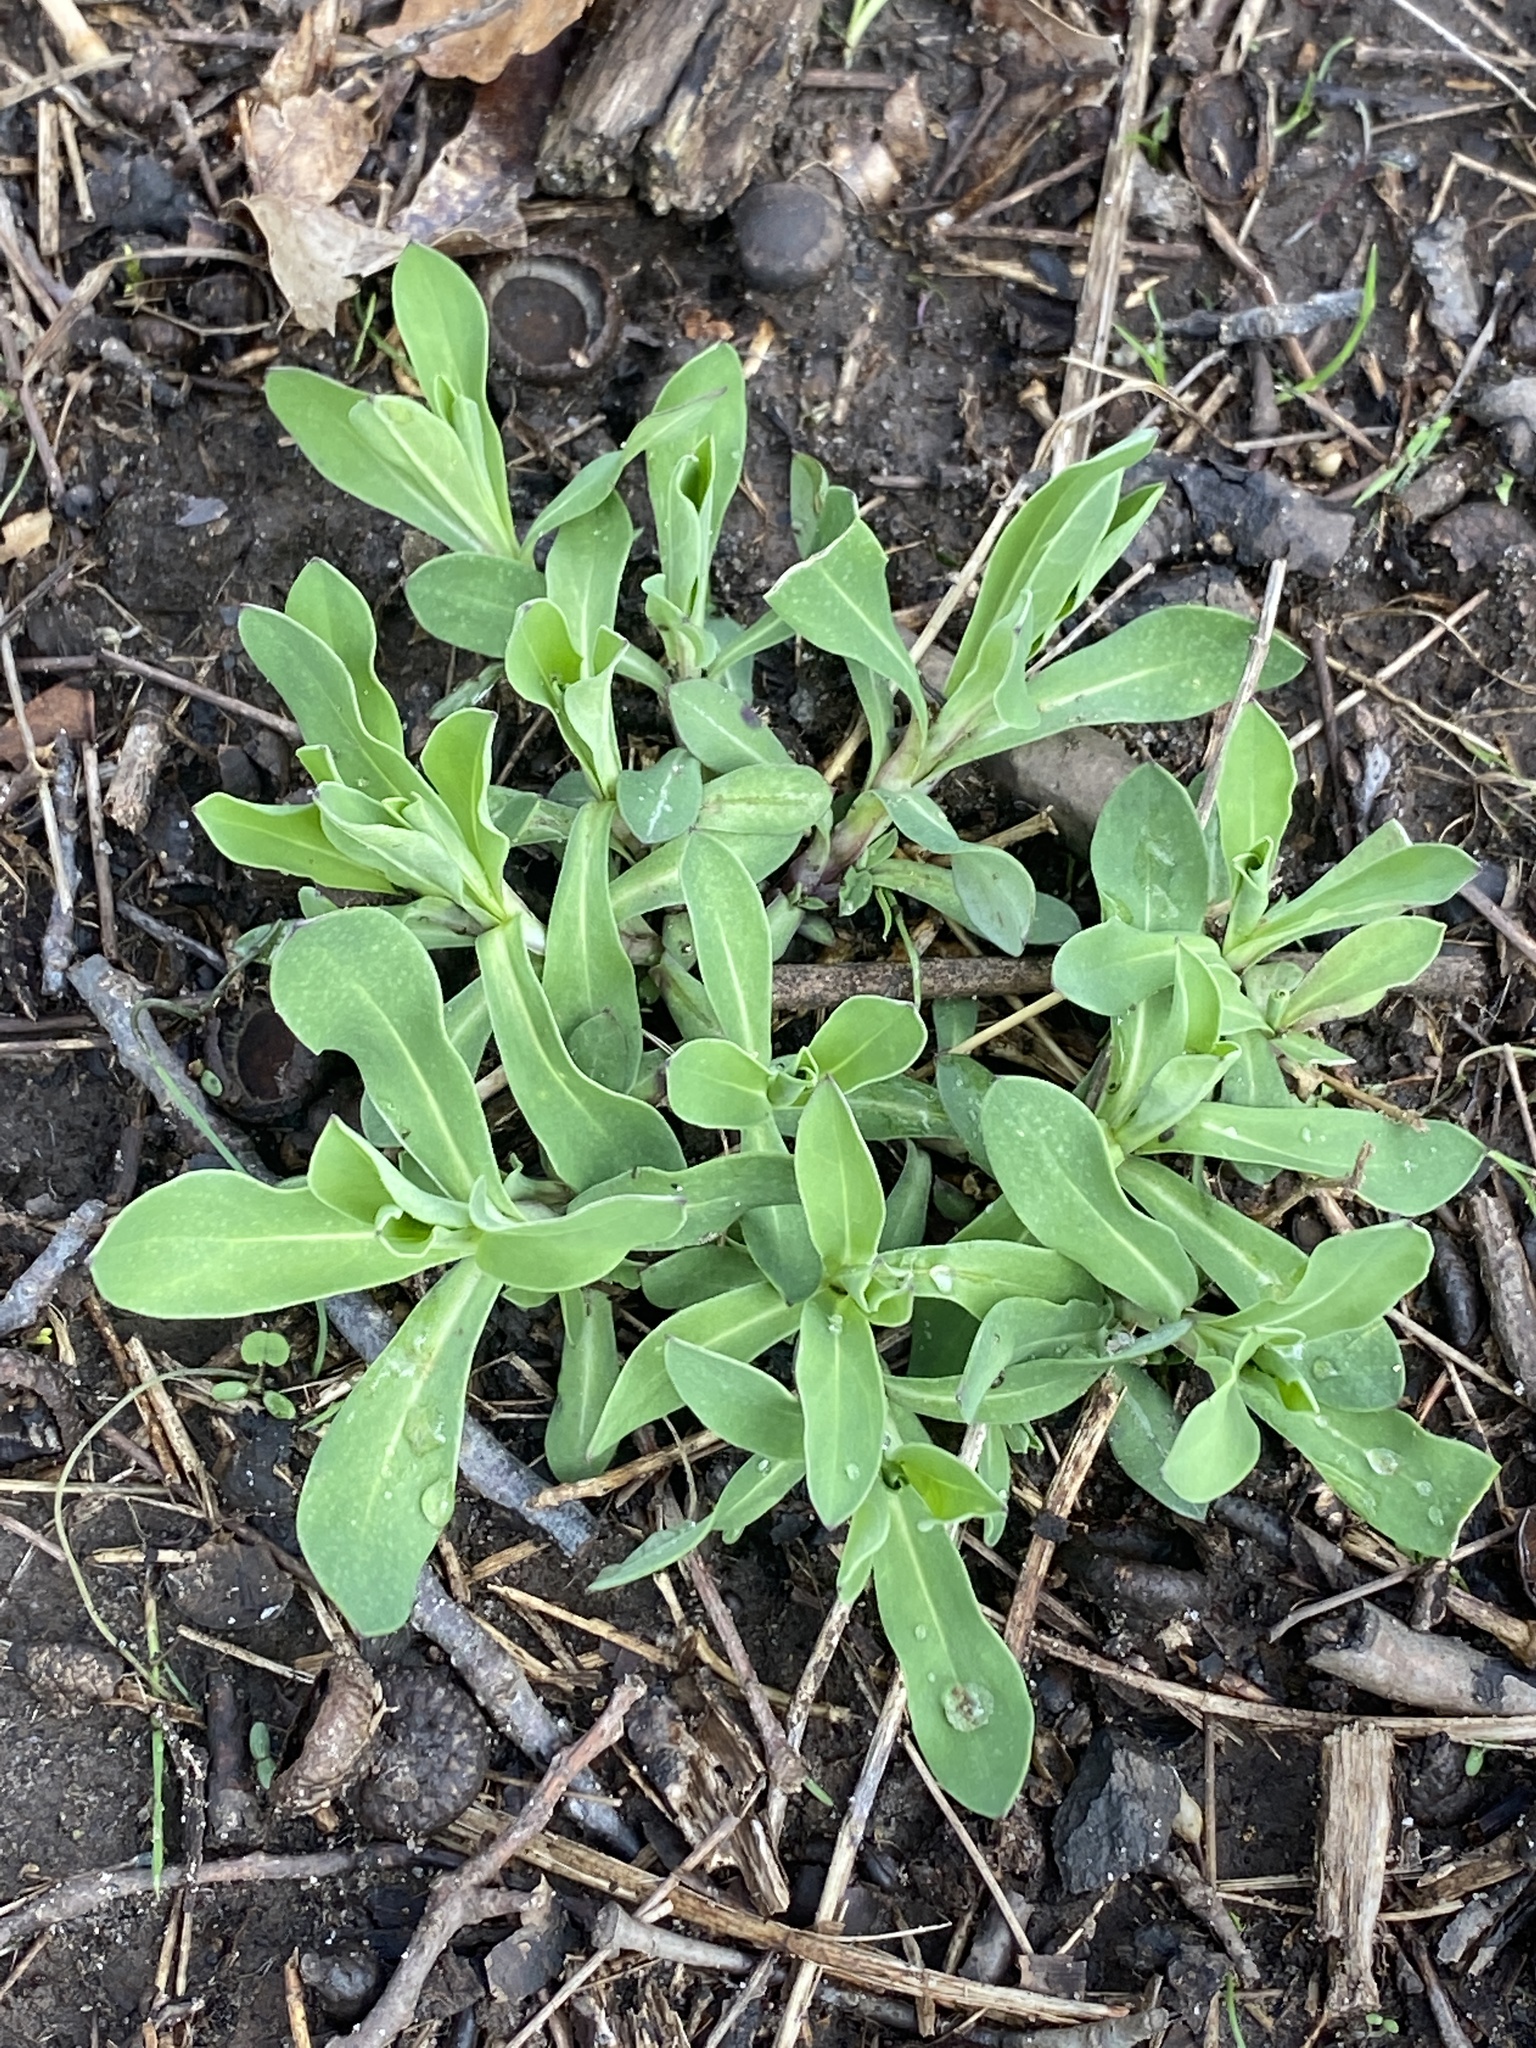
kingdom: Plantae
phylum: Tracheophyta
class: Magnoliopsida
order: Caryophyllales
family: Caryophyllaceae
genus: Silene
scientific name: Silene vulgaris
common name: Bladder campion
